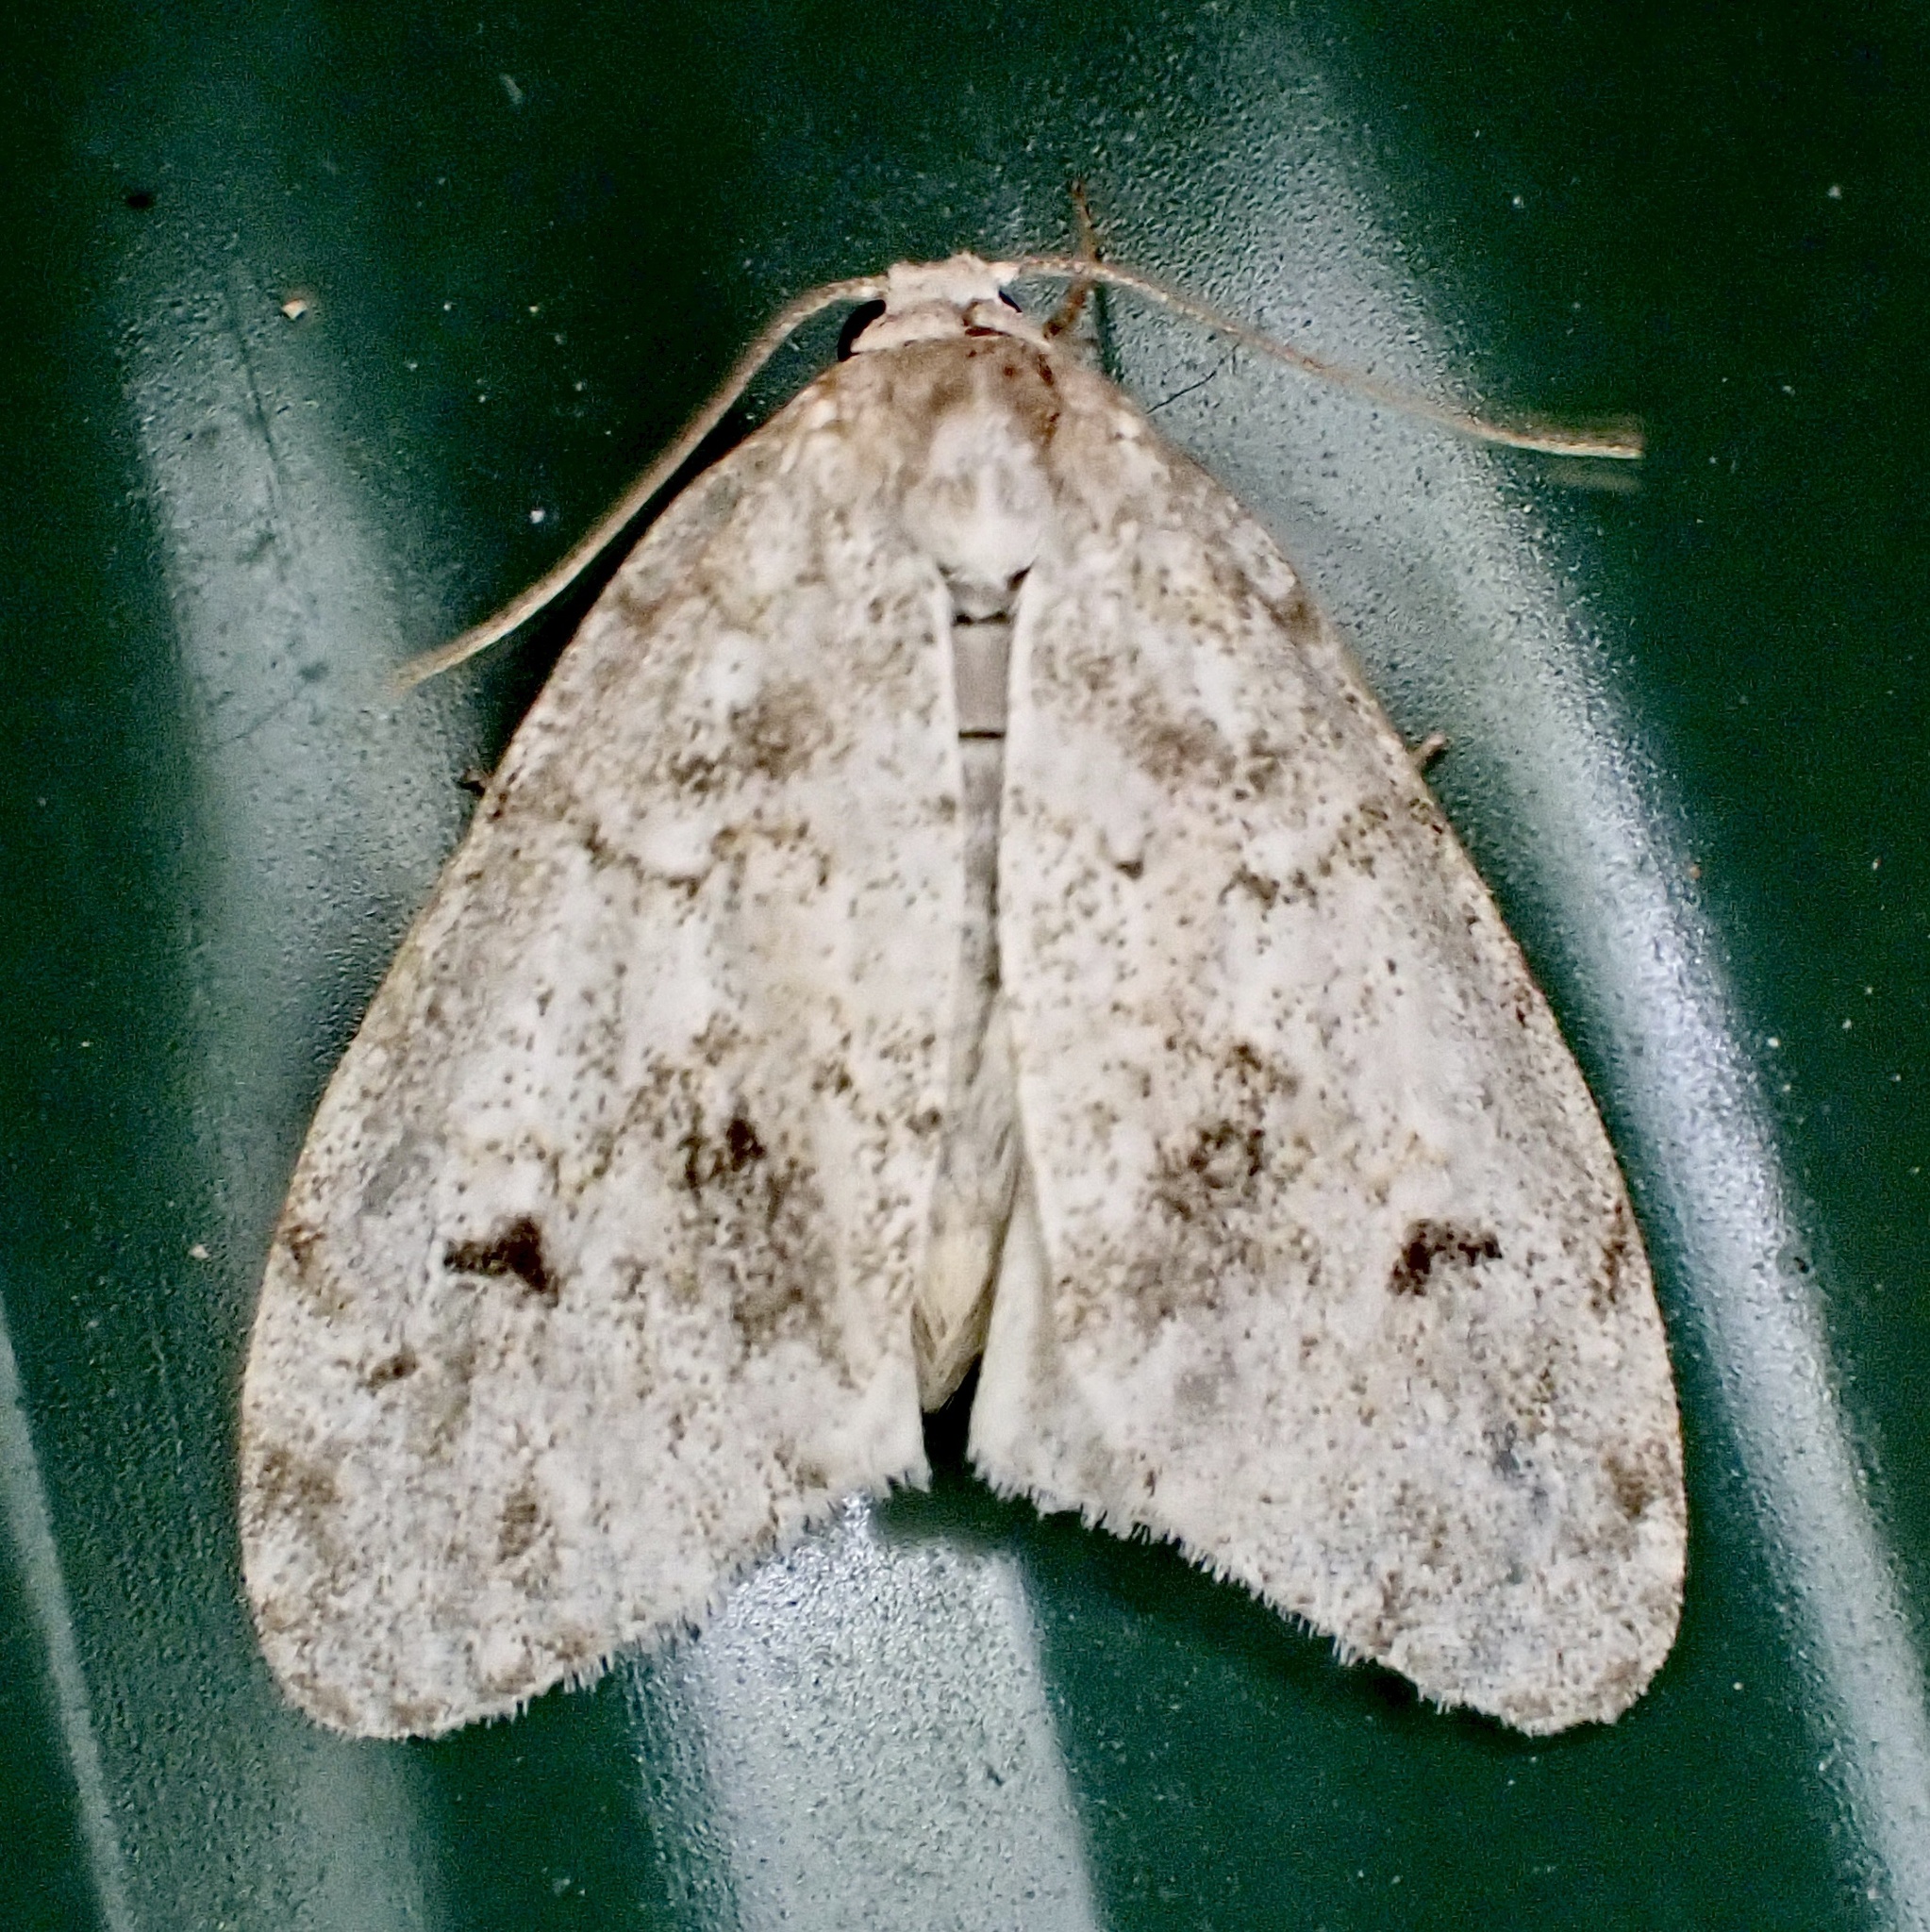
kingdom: Animalia
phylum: Arthropoda
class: Insecta
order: Lepidoptera
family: Erebidae
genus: Clemensia
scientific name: Clemensia albata
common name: Little white lichen moth
